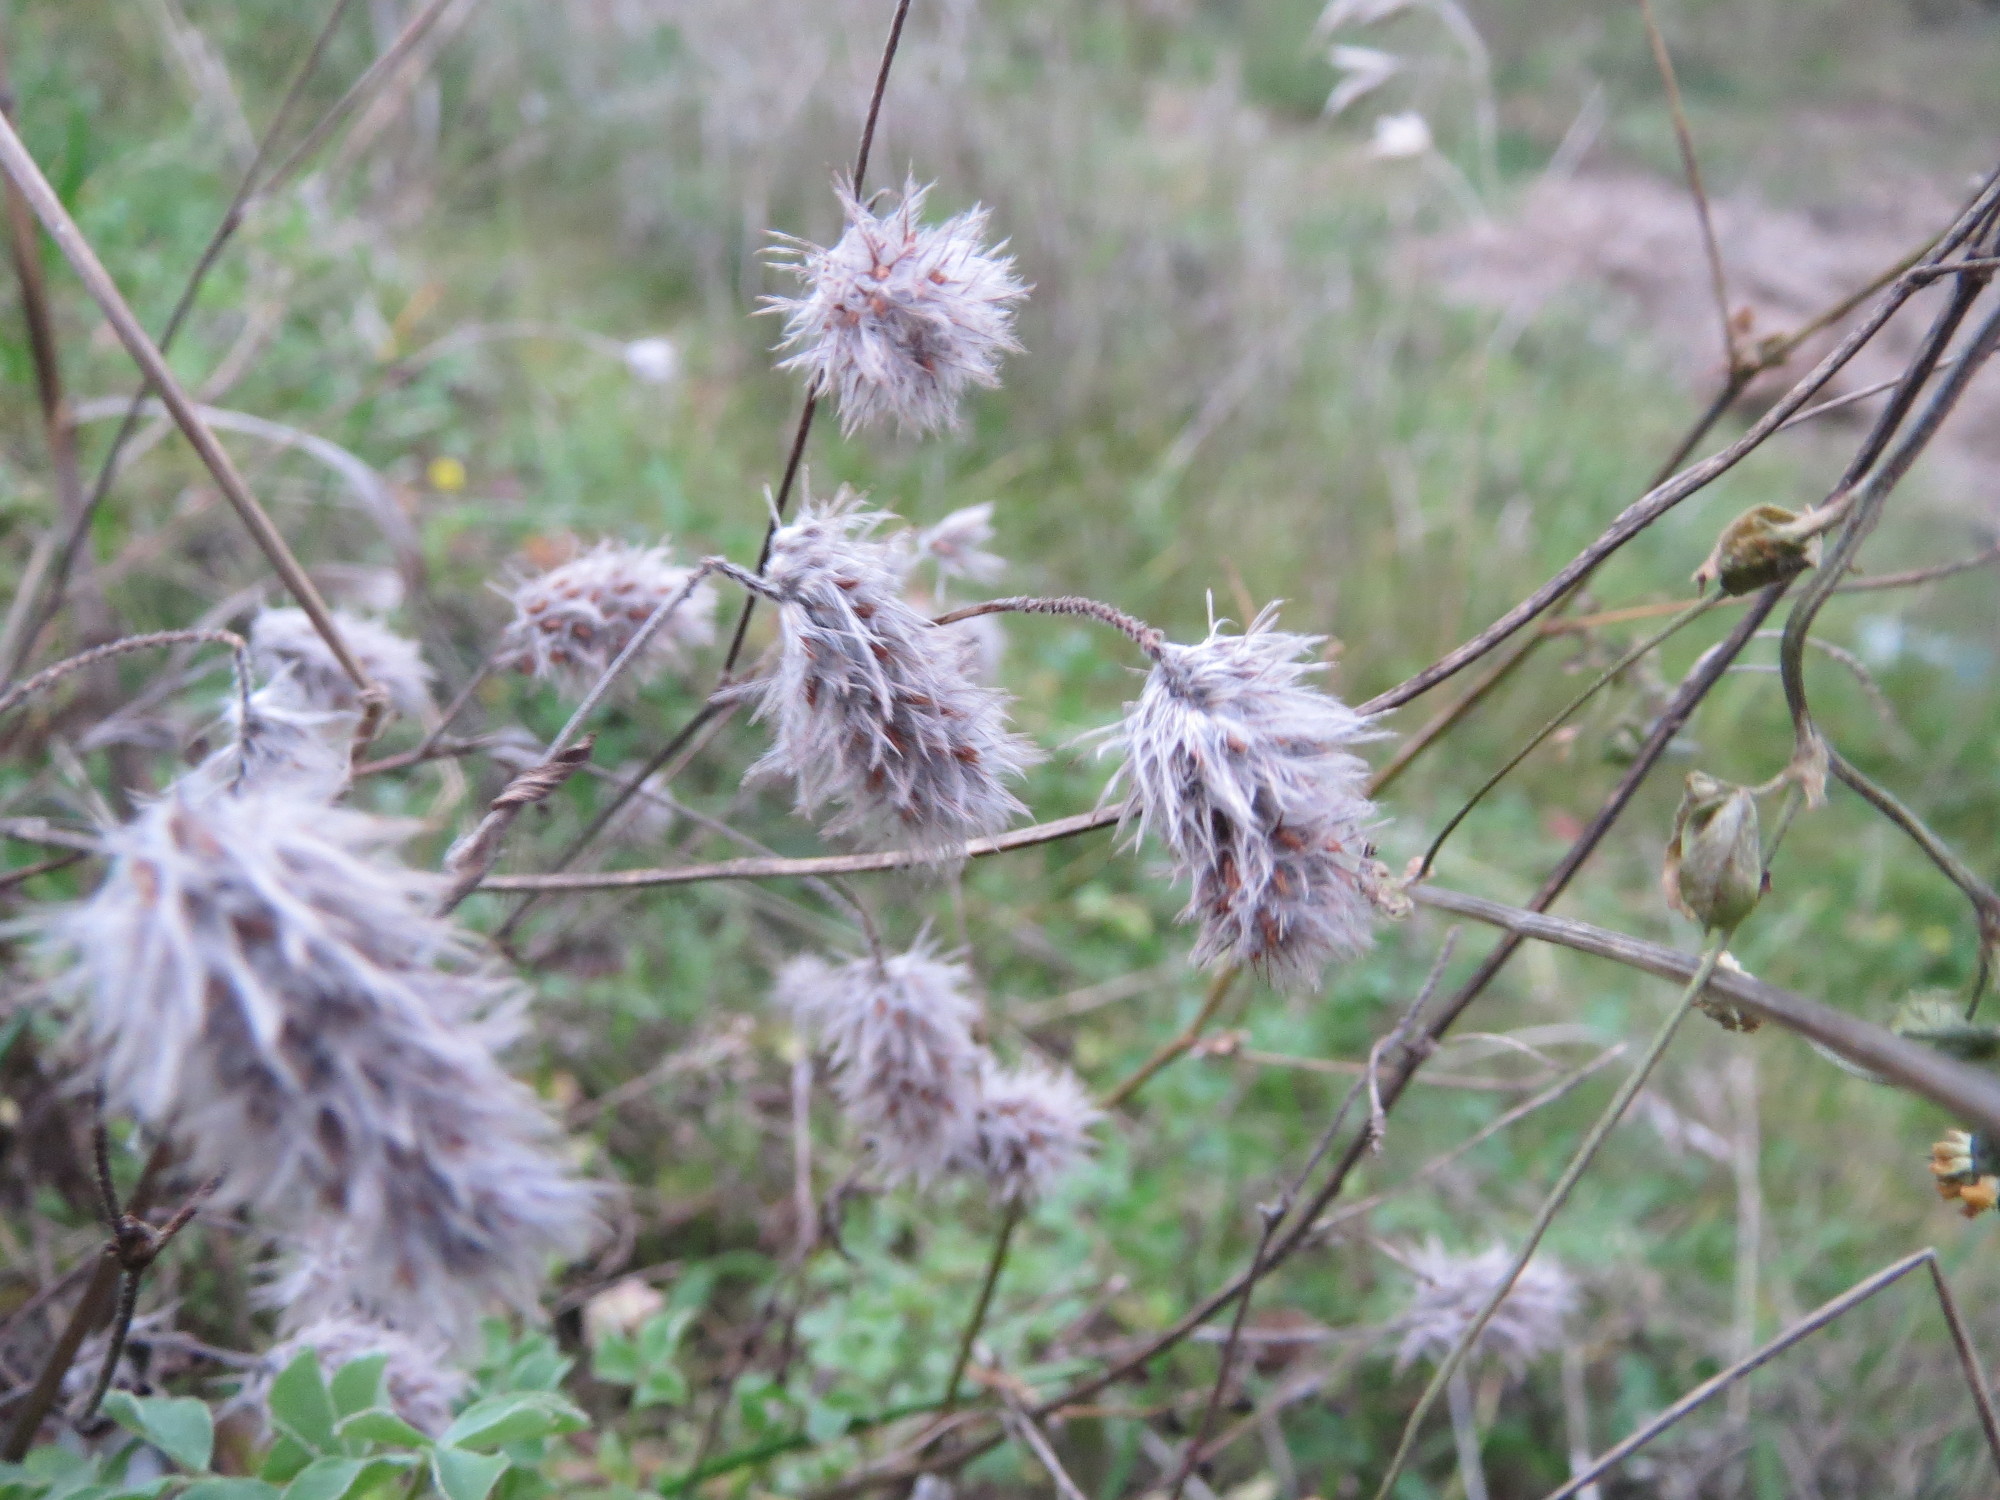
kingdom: Plantae
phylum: Tracheophyta
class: Magnoliopsida
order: Fabales
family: Fabaceae
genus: Trifolium
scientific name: Trifolium arvense
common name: Hare's-foot clover
